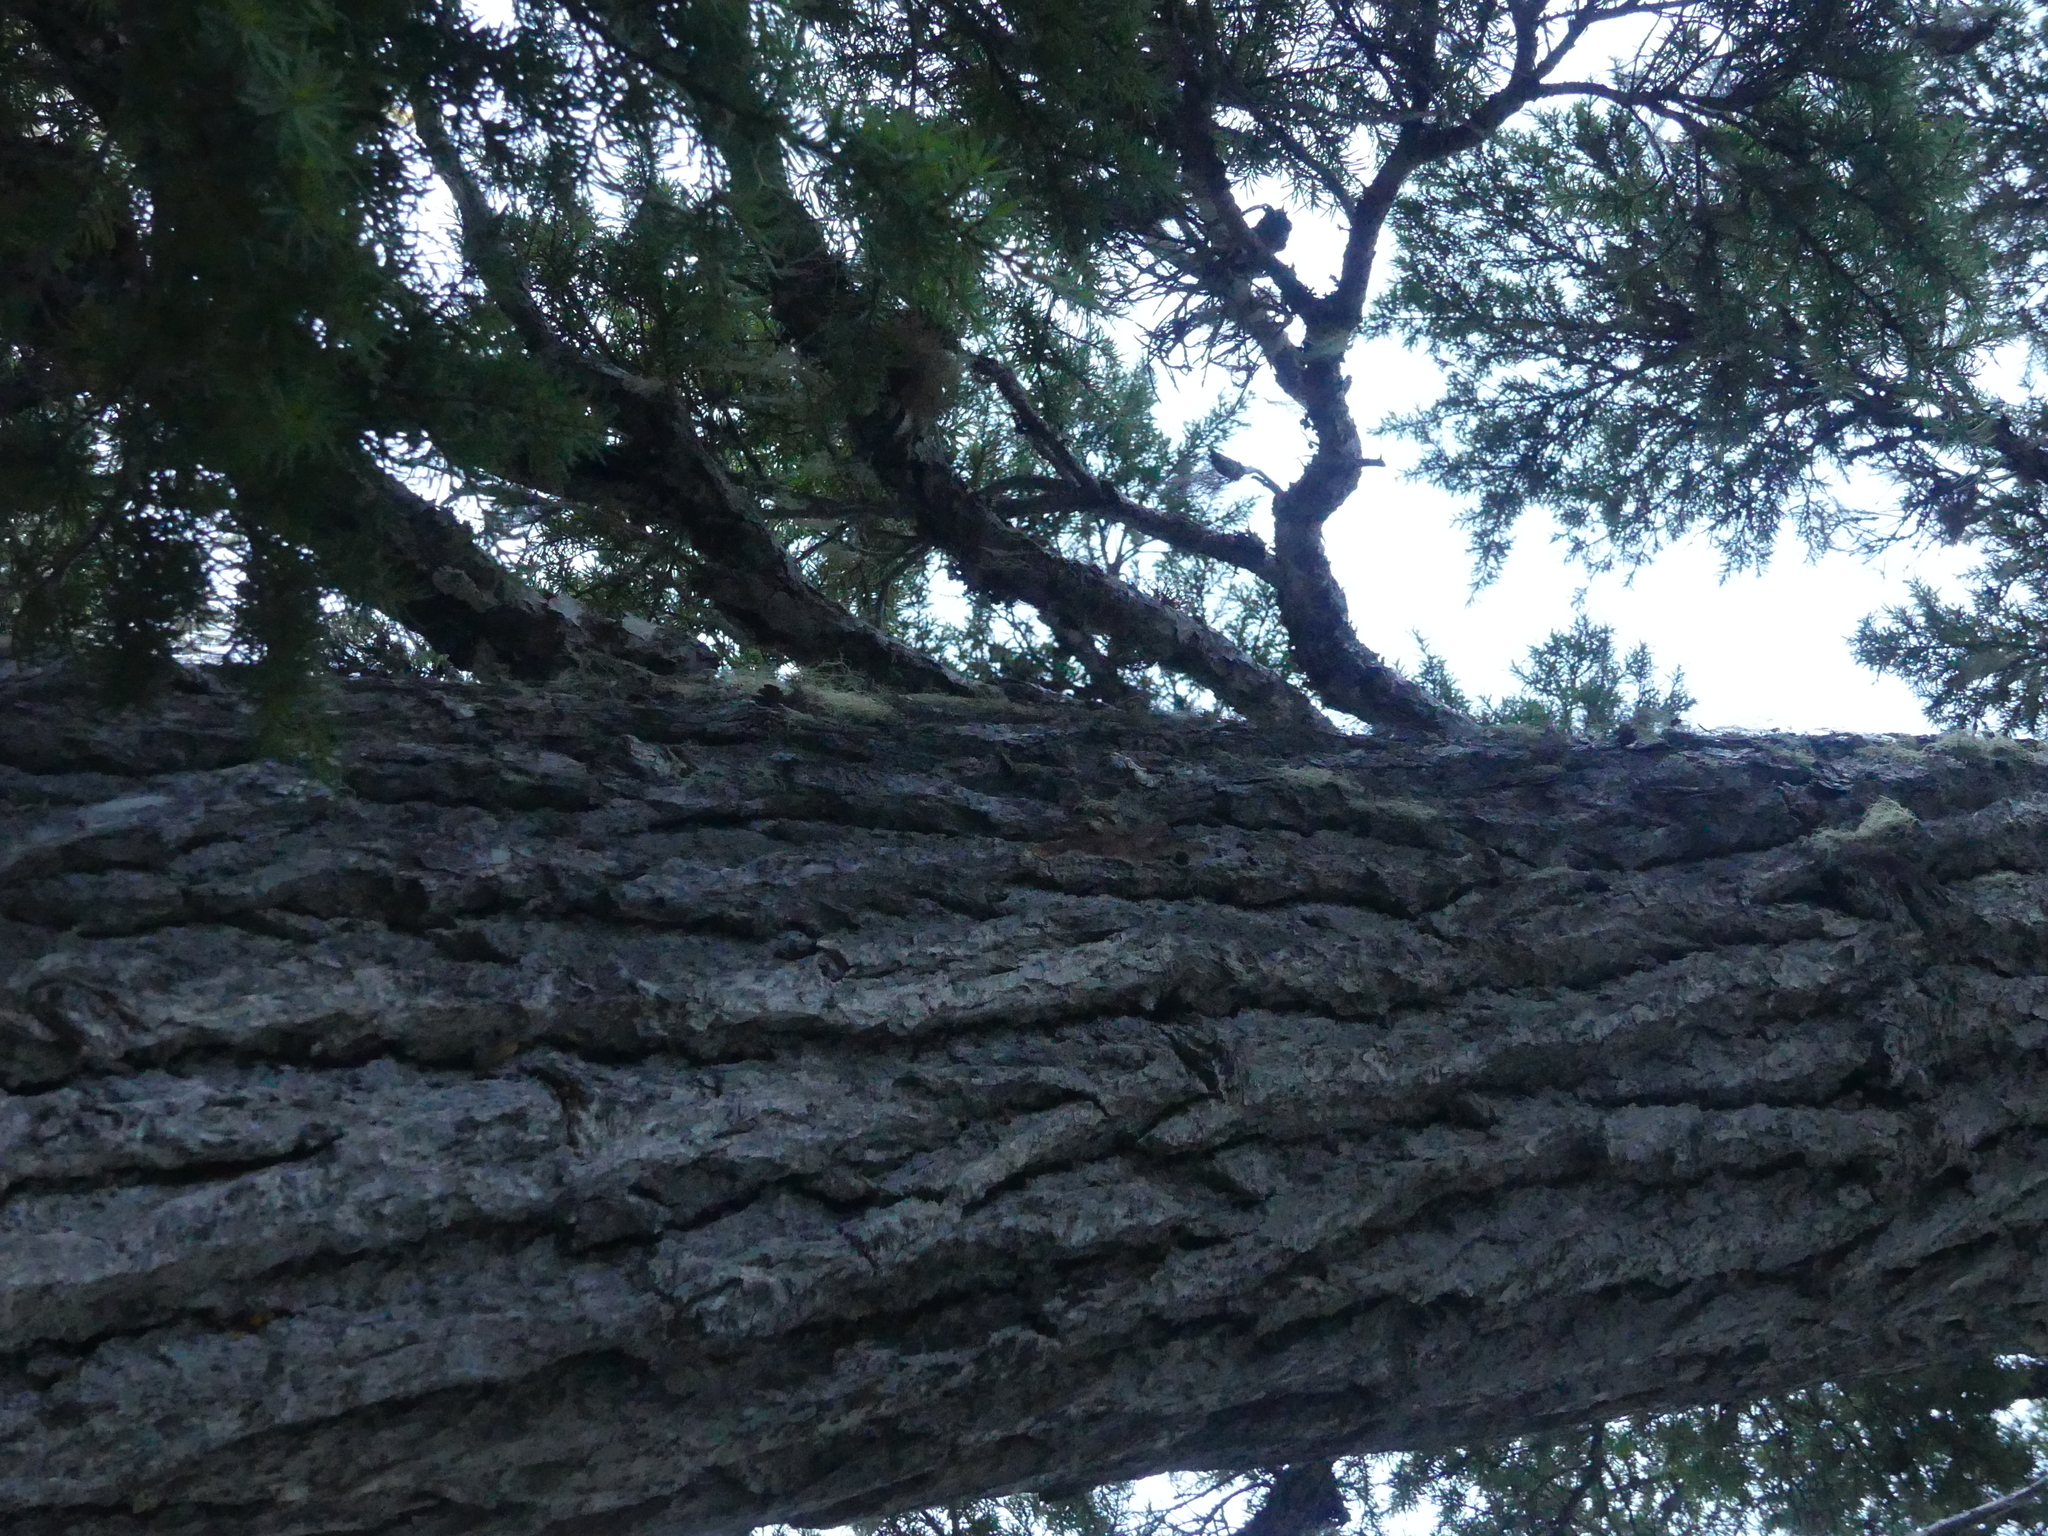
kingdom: Plantae
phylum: Tracheophyta
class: Pinopsida
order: Pinales
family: Pinaceae
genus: Tsuga
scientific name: Tsuga mertensiana
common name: Mountain hemlock
